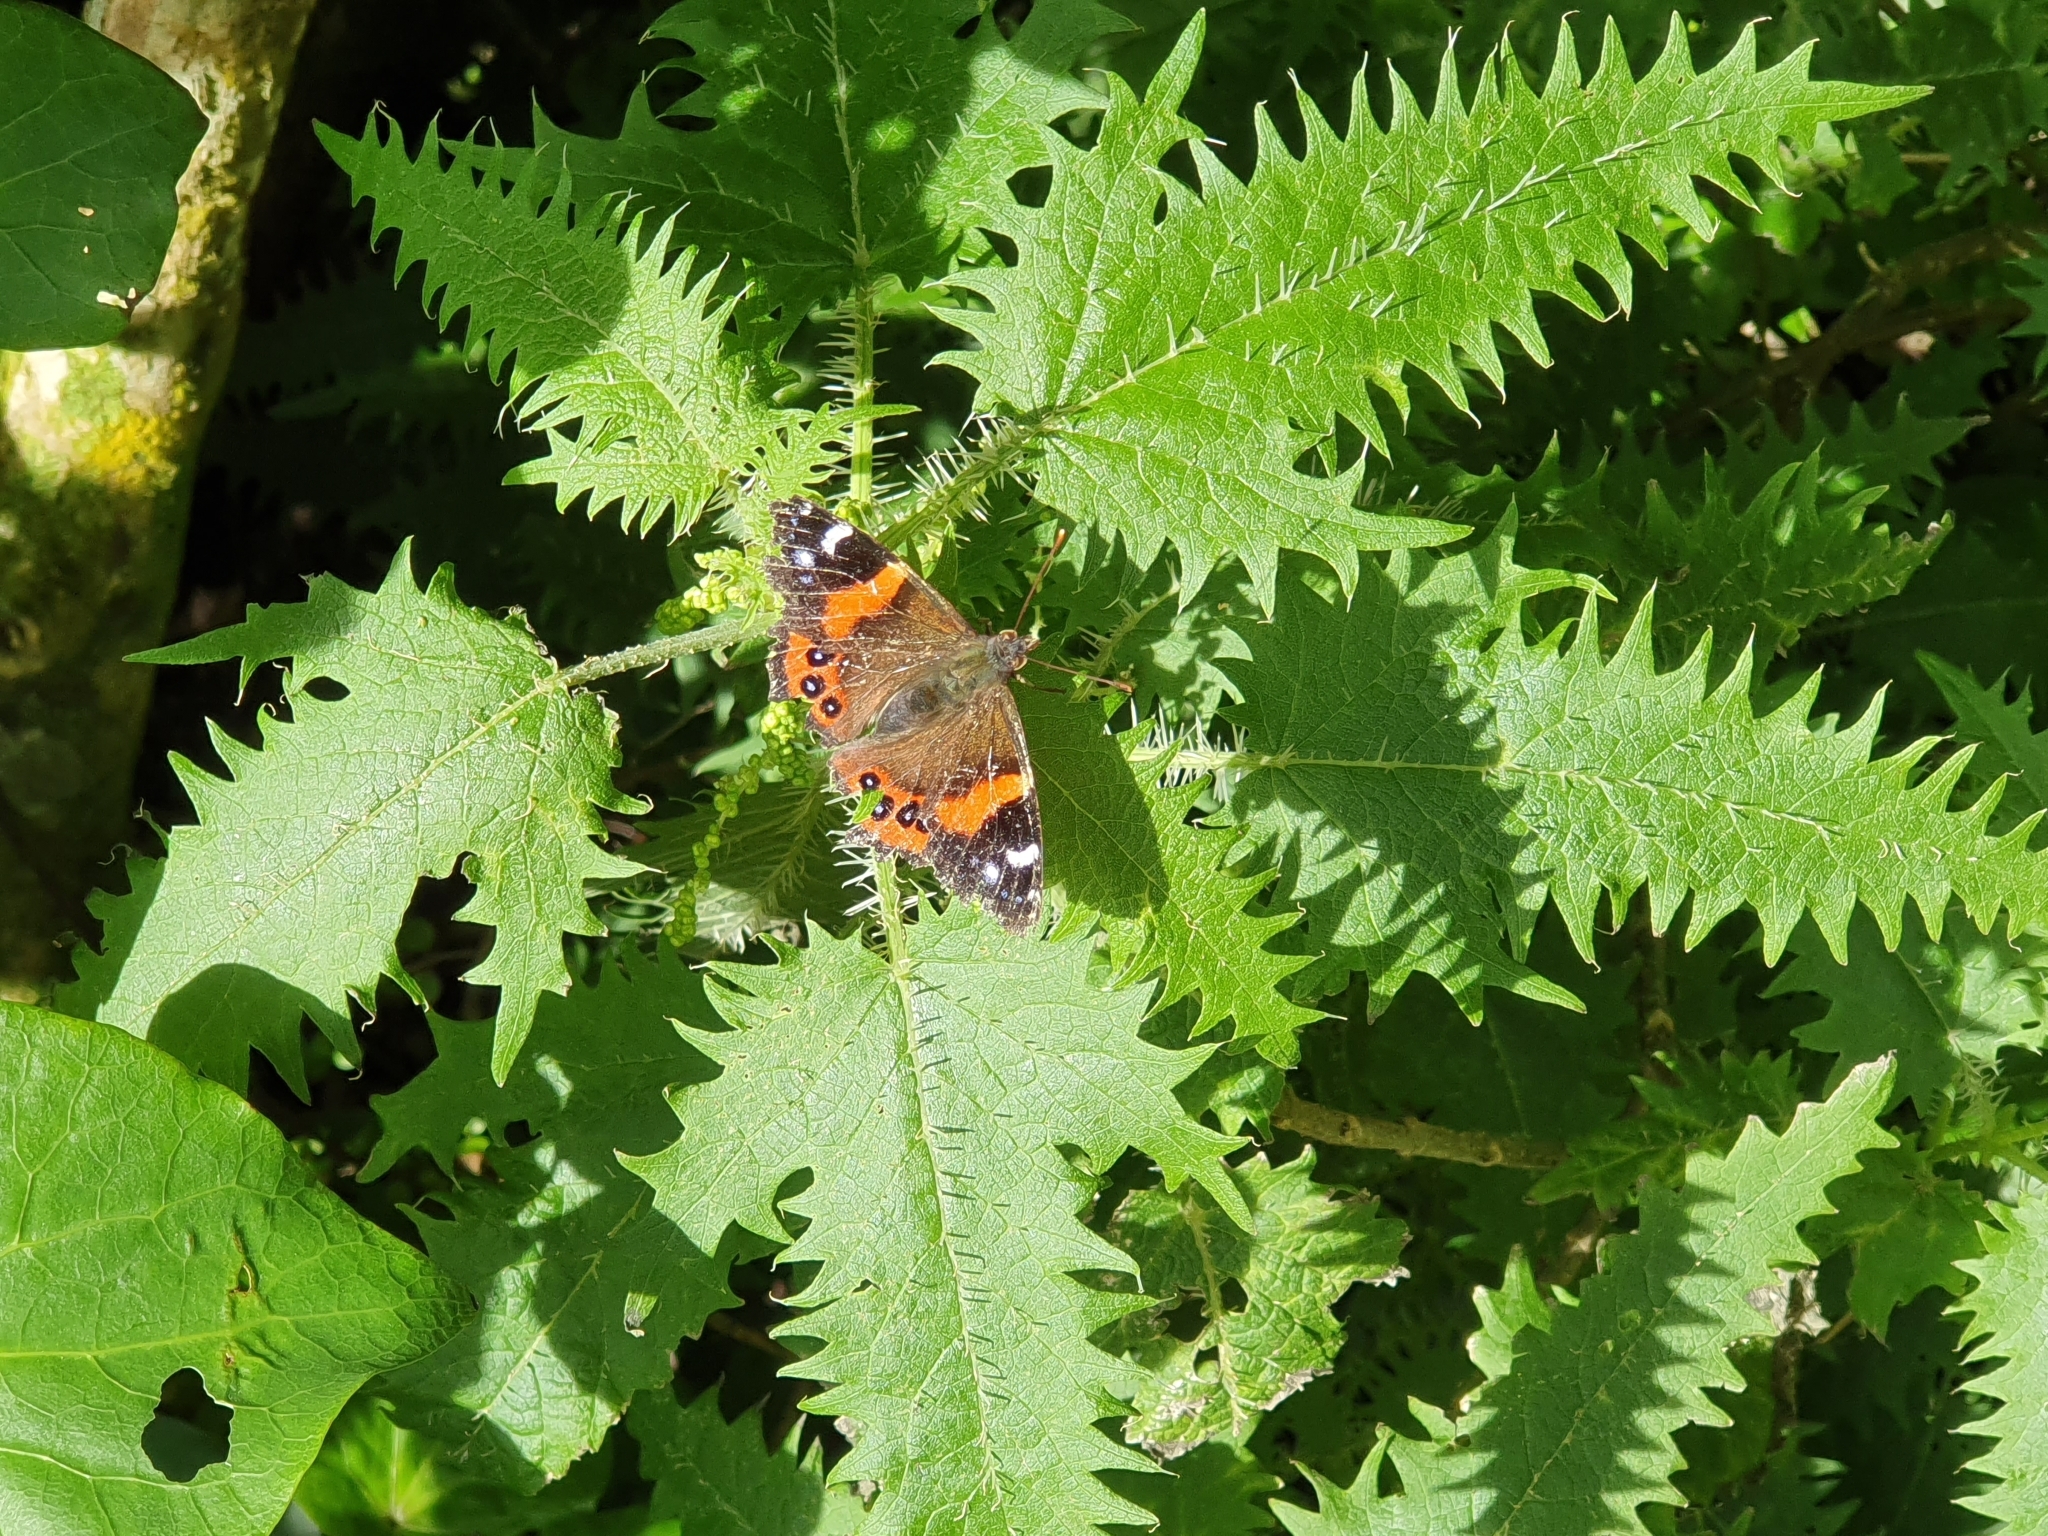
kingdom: Animalia
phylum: Arthropoda
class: Insecta
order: Lepidoptera
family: Nymphalidae
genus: Vanessa
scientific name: Vanessa gonerilla
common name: New zealand red admiral
